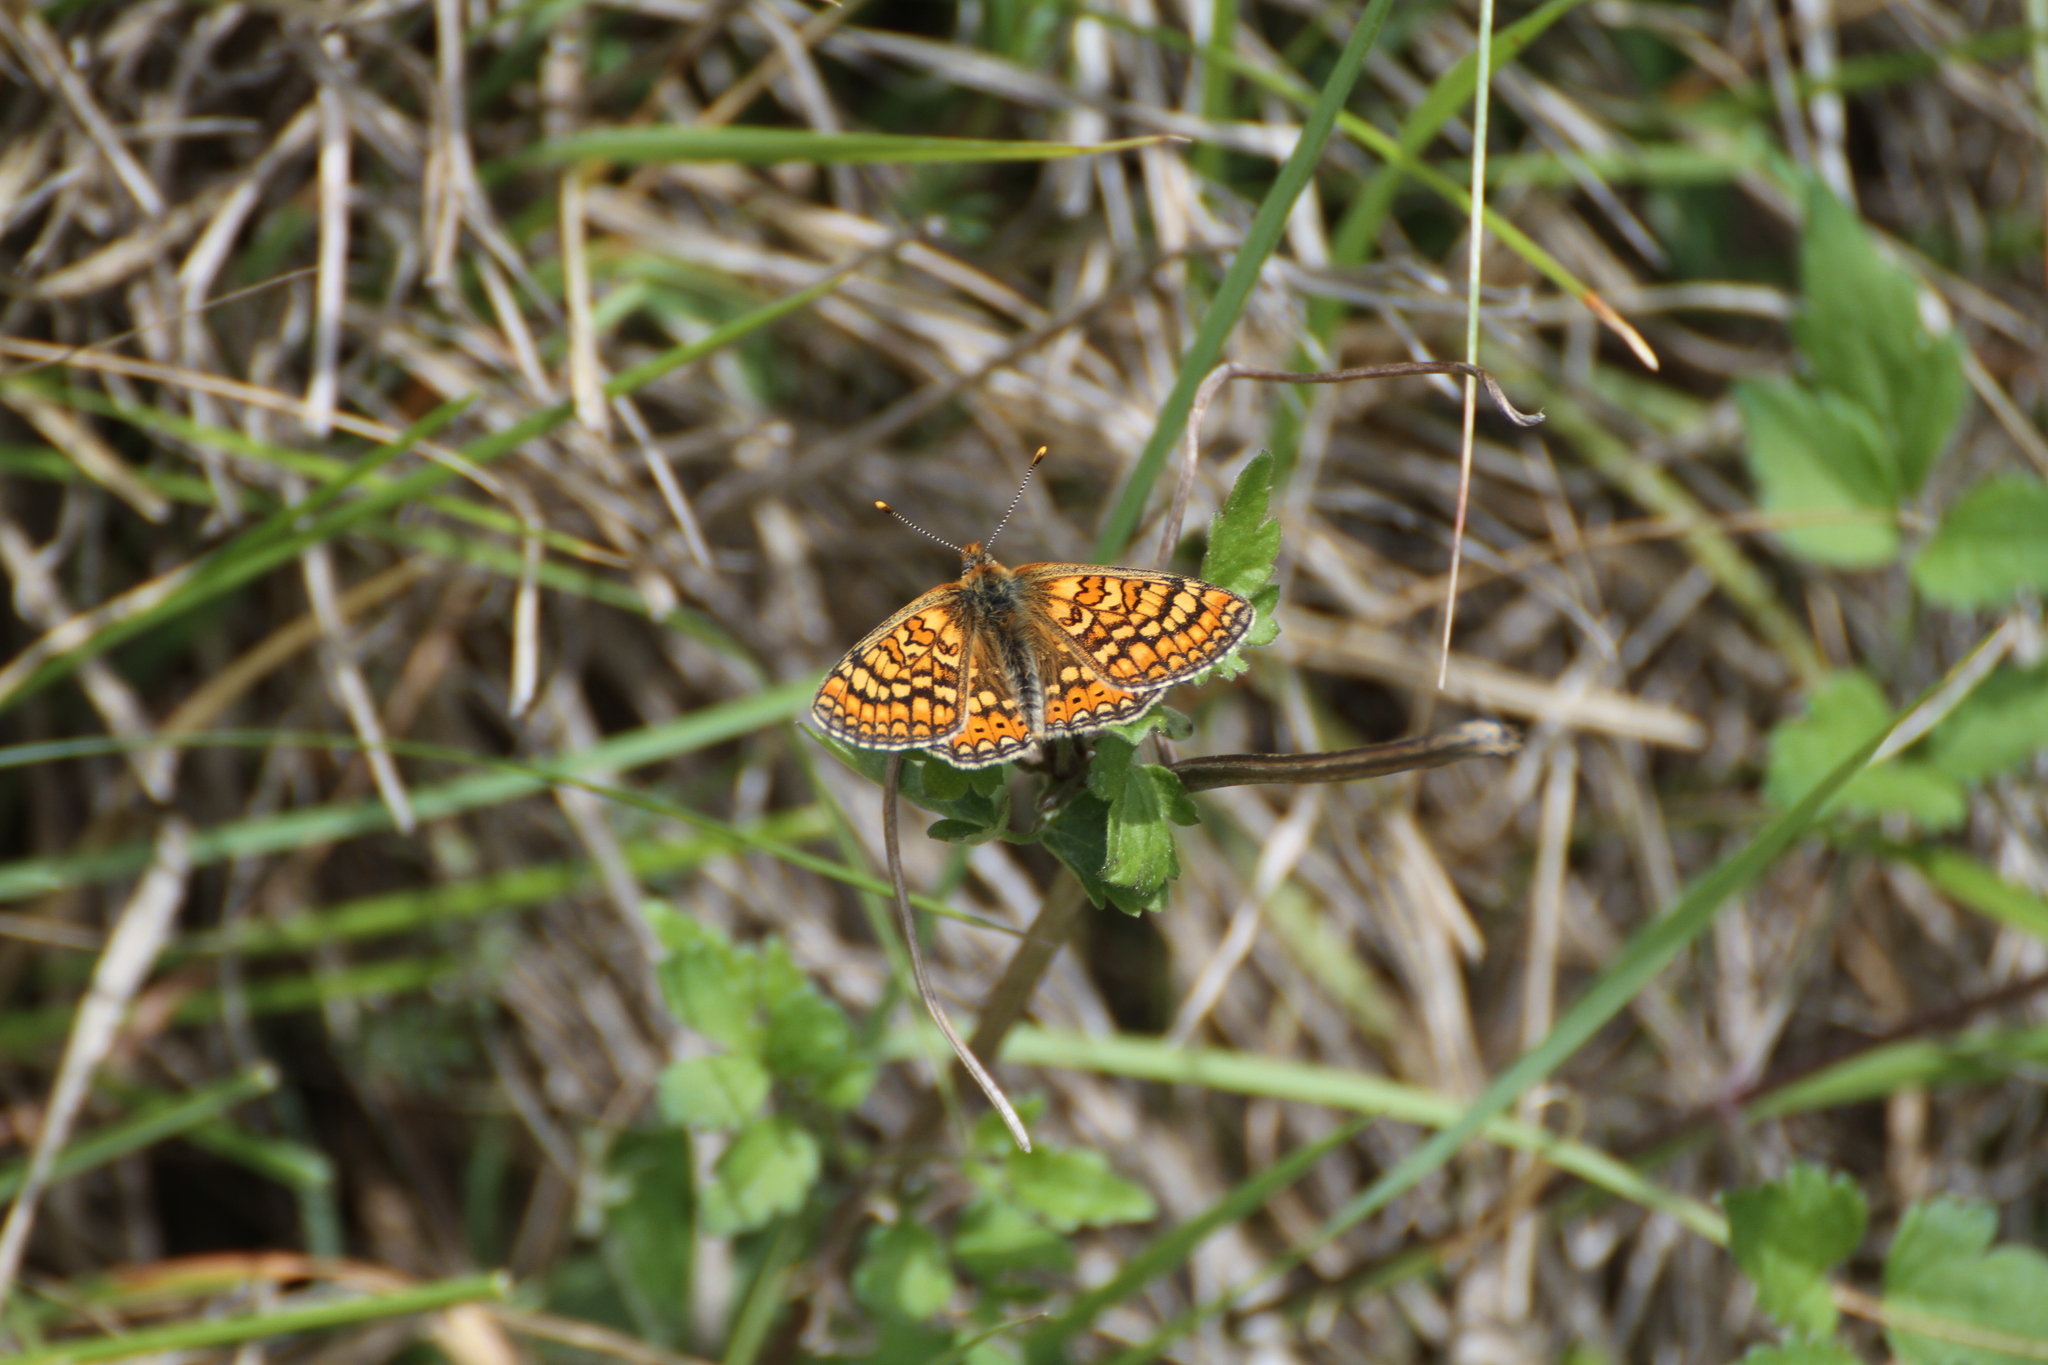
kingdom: Animalia
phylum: Arthropoda
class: Insecta
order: Lepidoptera
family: Nymphalidae
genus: Euphydryas
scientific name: Euphydryas aurinia
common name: Marsh fritillary
